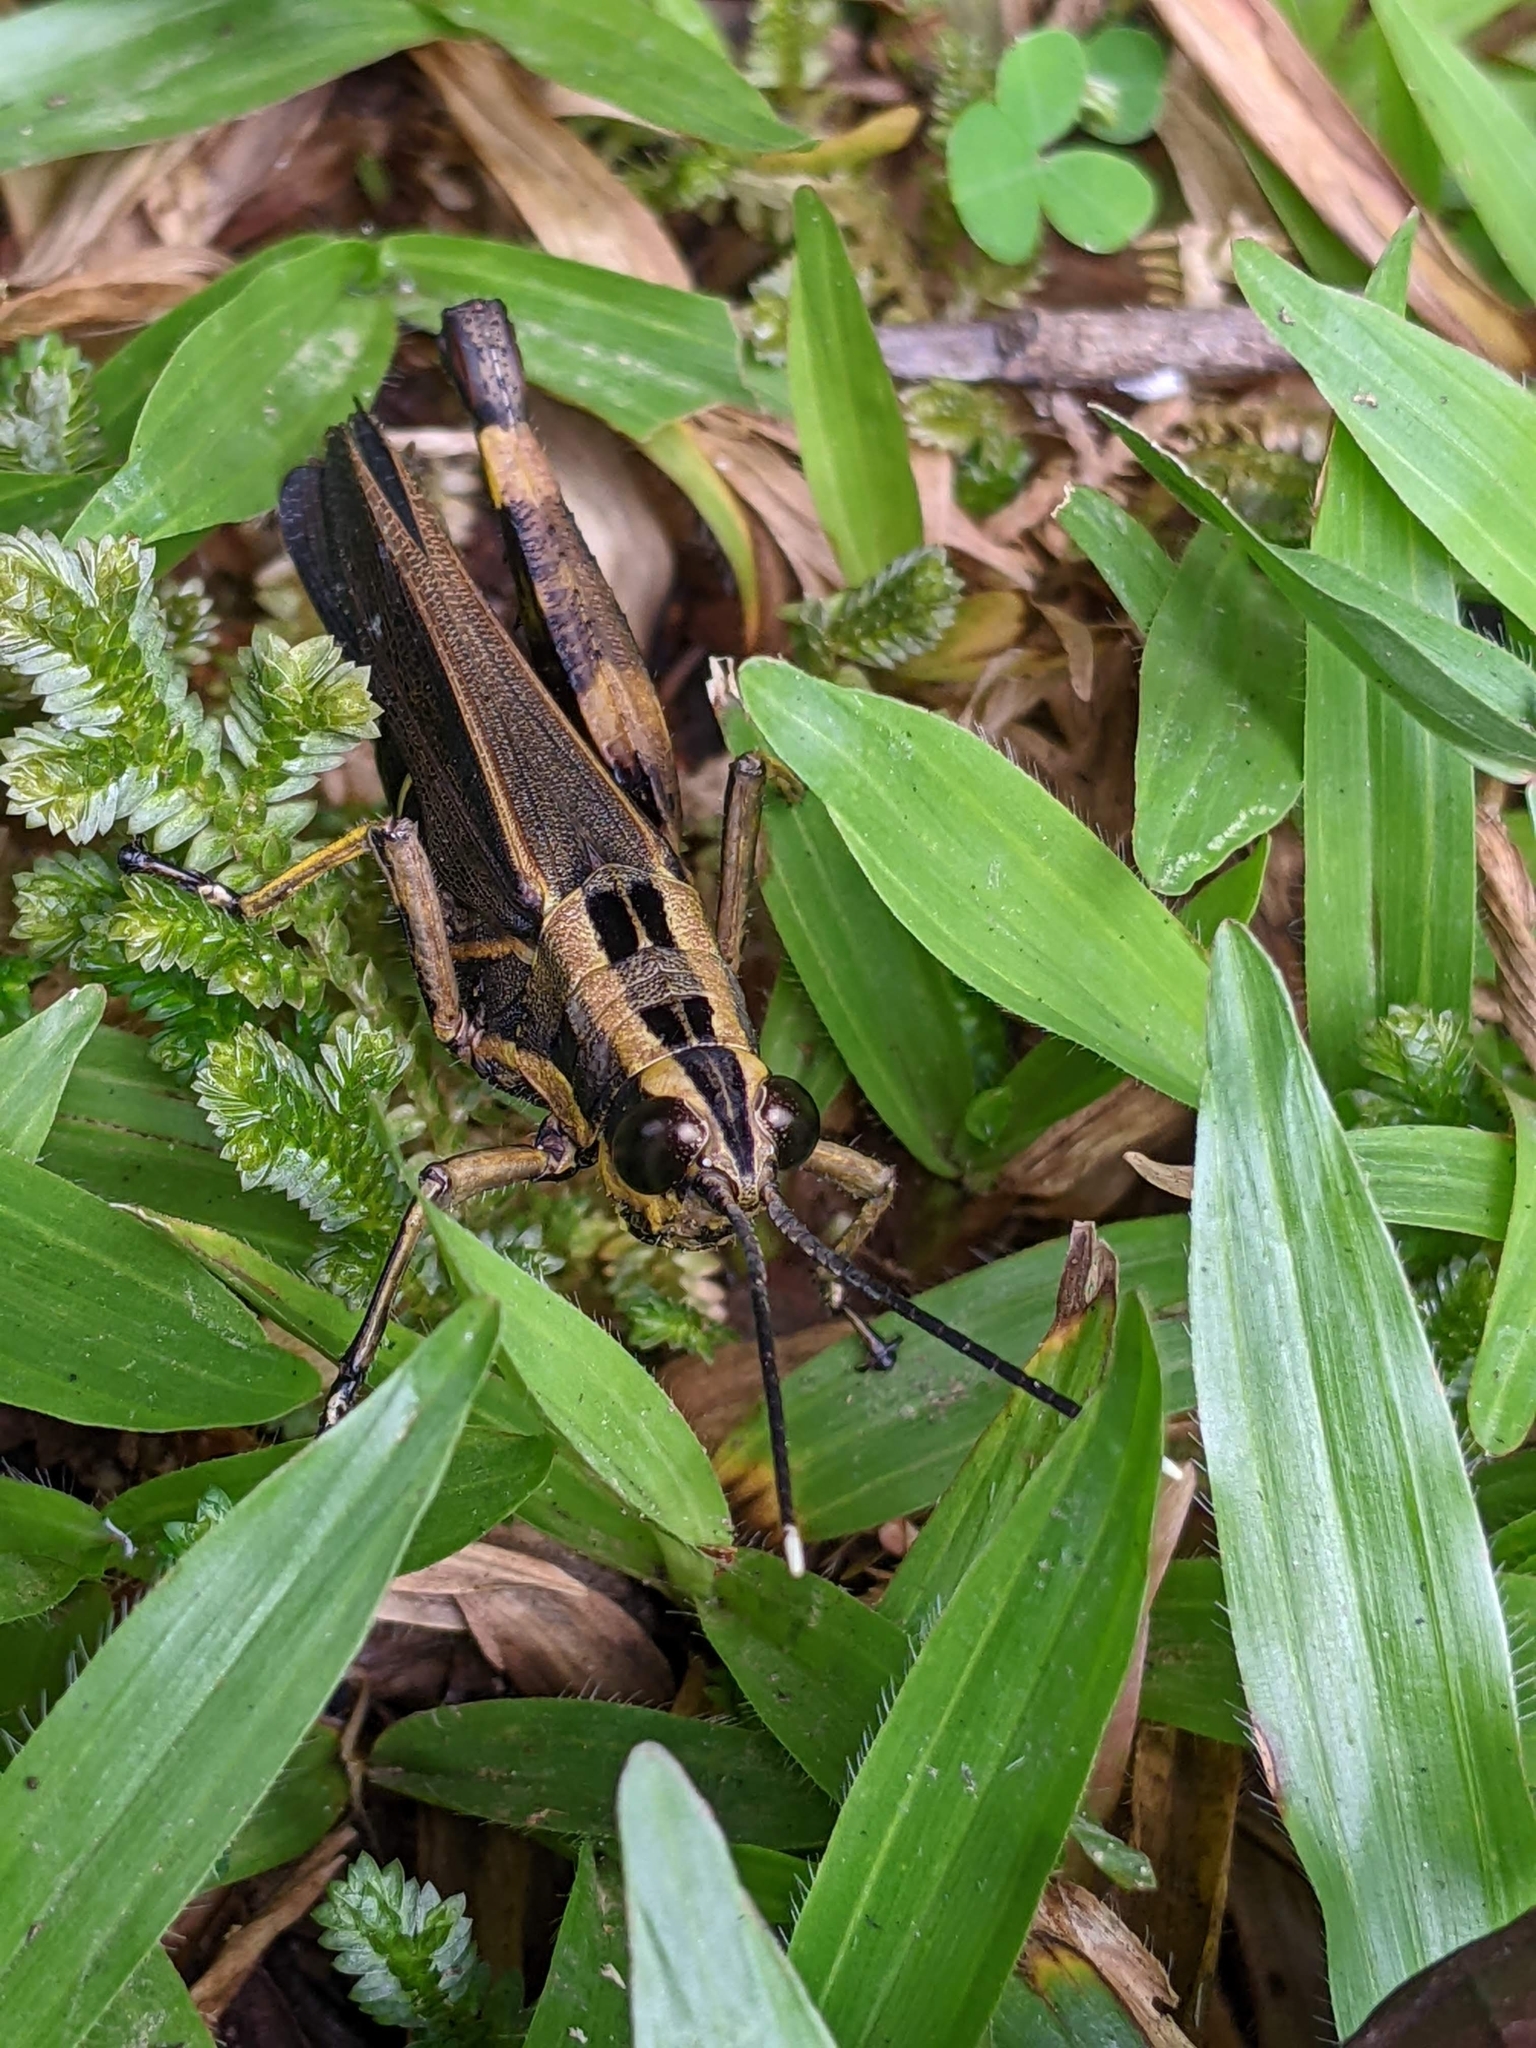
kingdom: Animalia
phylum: Arthropoda
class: Insecta
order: Orthoptera
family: Acrididae
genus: Traulia
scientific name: Traulia azureipennis
